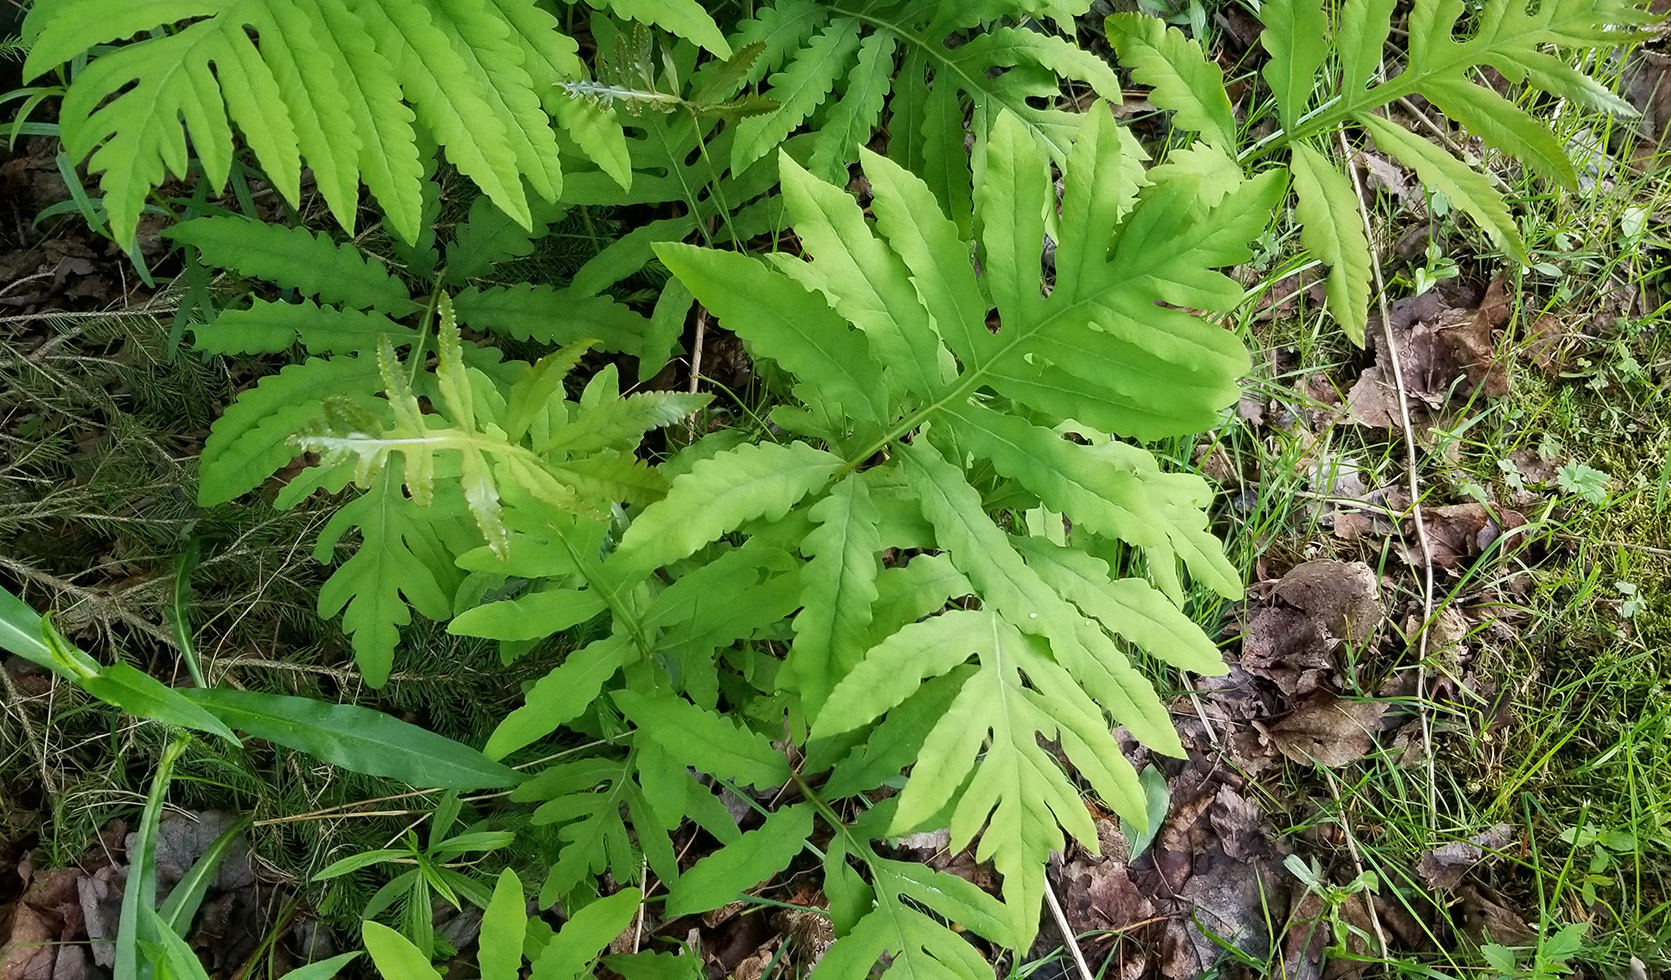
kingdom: Plantae
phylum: Tracheophyta
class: Polypodiopsida
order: Polypodiales
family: Onocleaceae
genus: Onoclea
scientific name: Onoclea sensibilis
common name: Sensitive fern
